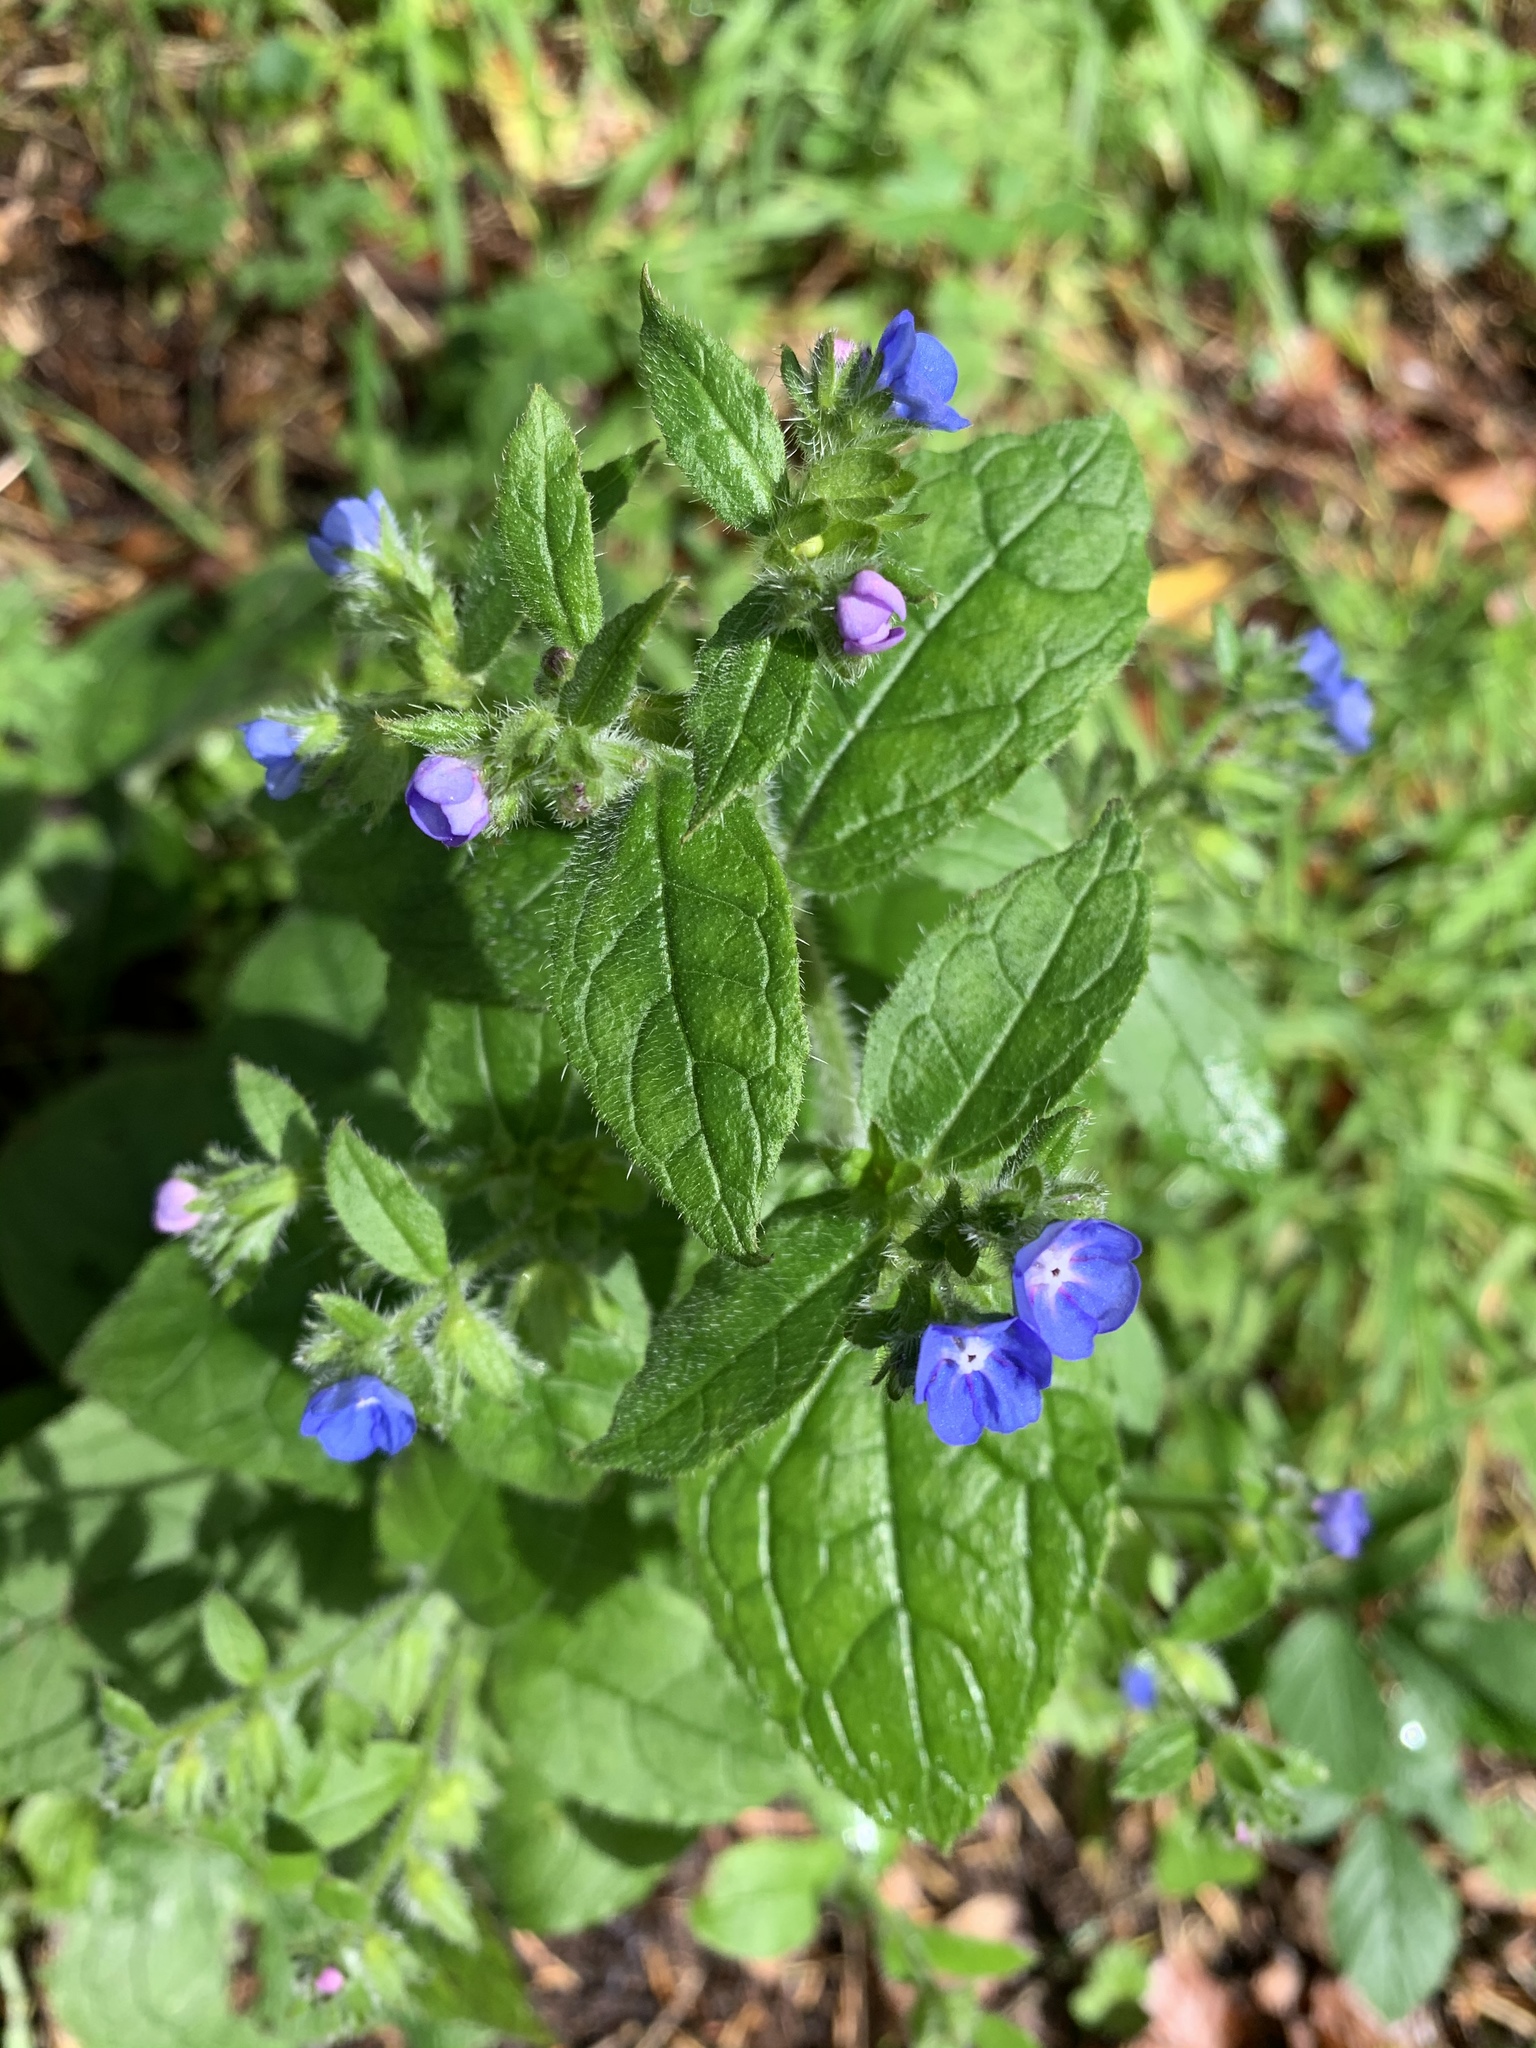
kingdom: Plantae
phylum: Tracheophyta
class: Magnoliopsida
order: Boraginales
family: Boraginaceae
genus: Pentaglottis
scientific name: Pentaglottis sempervirens
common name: Green alkanet
